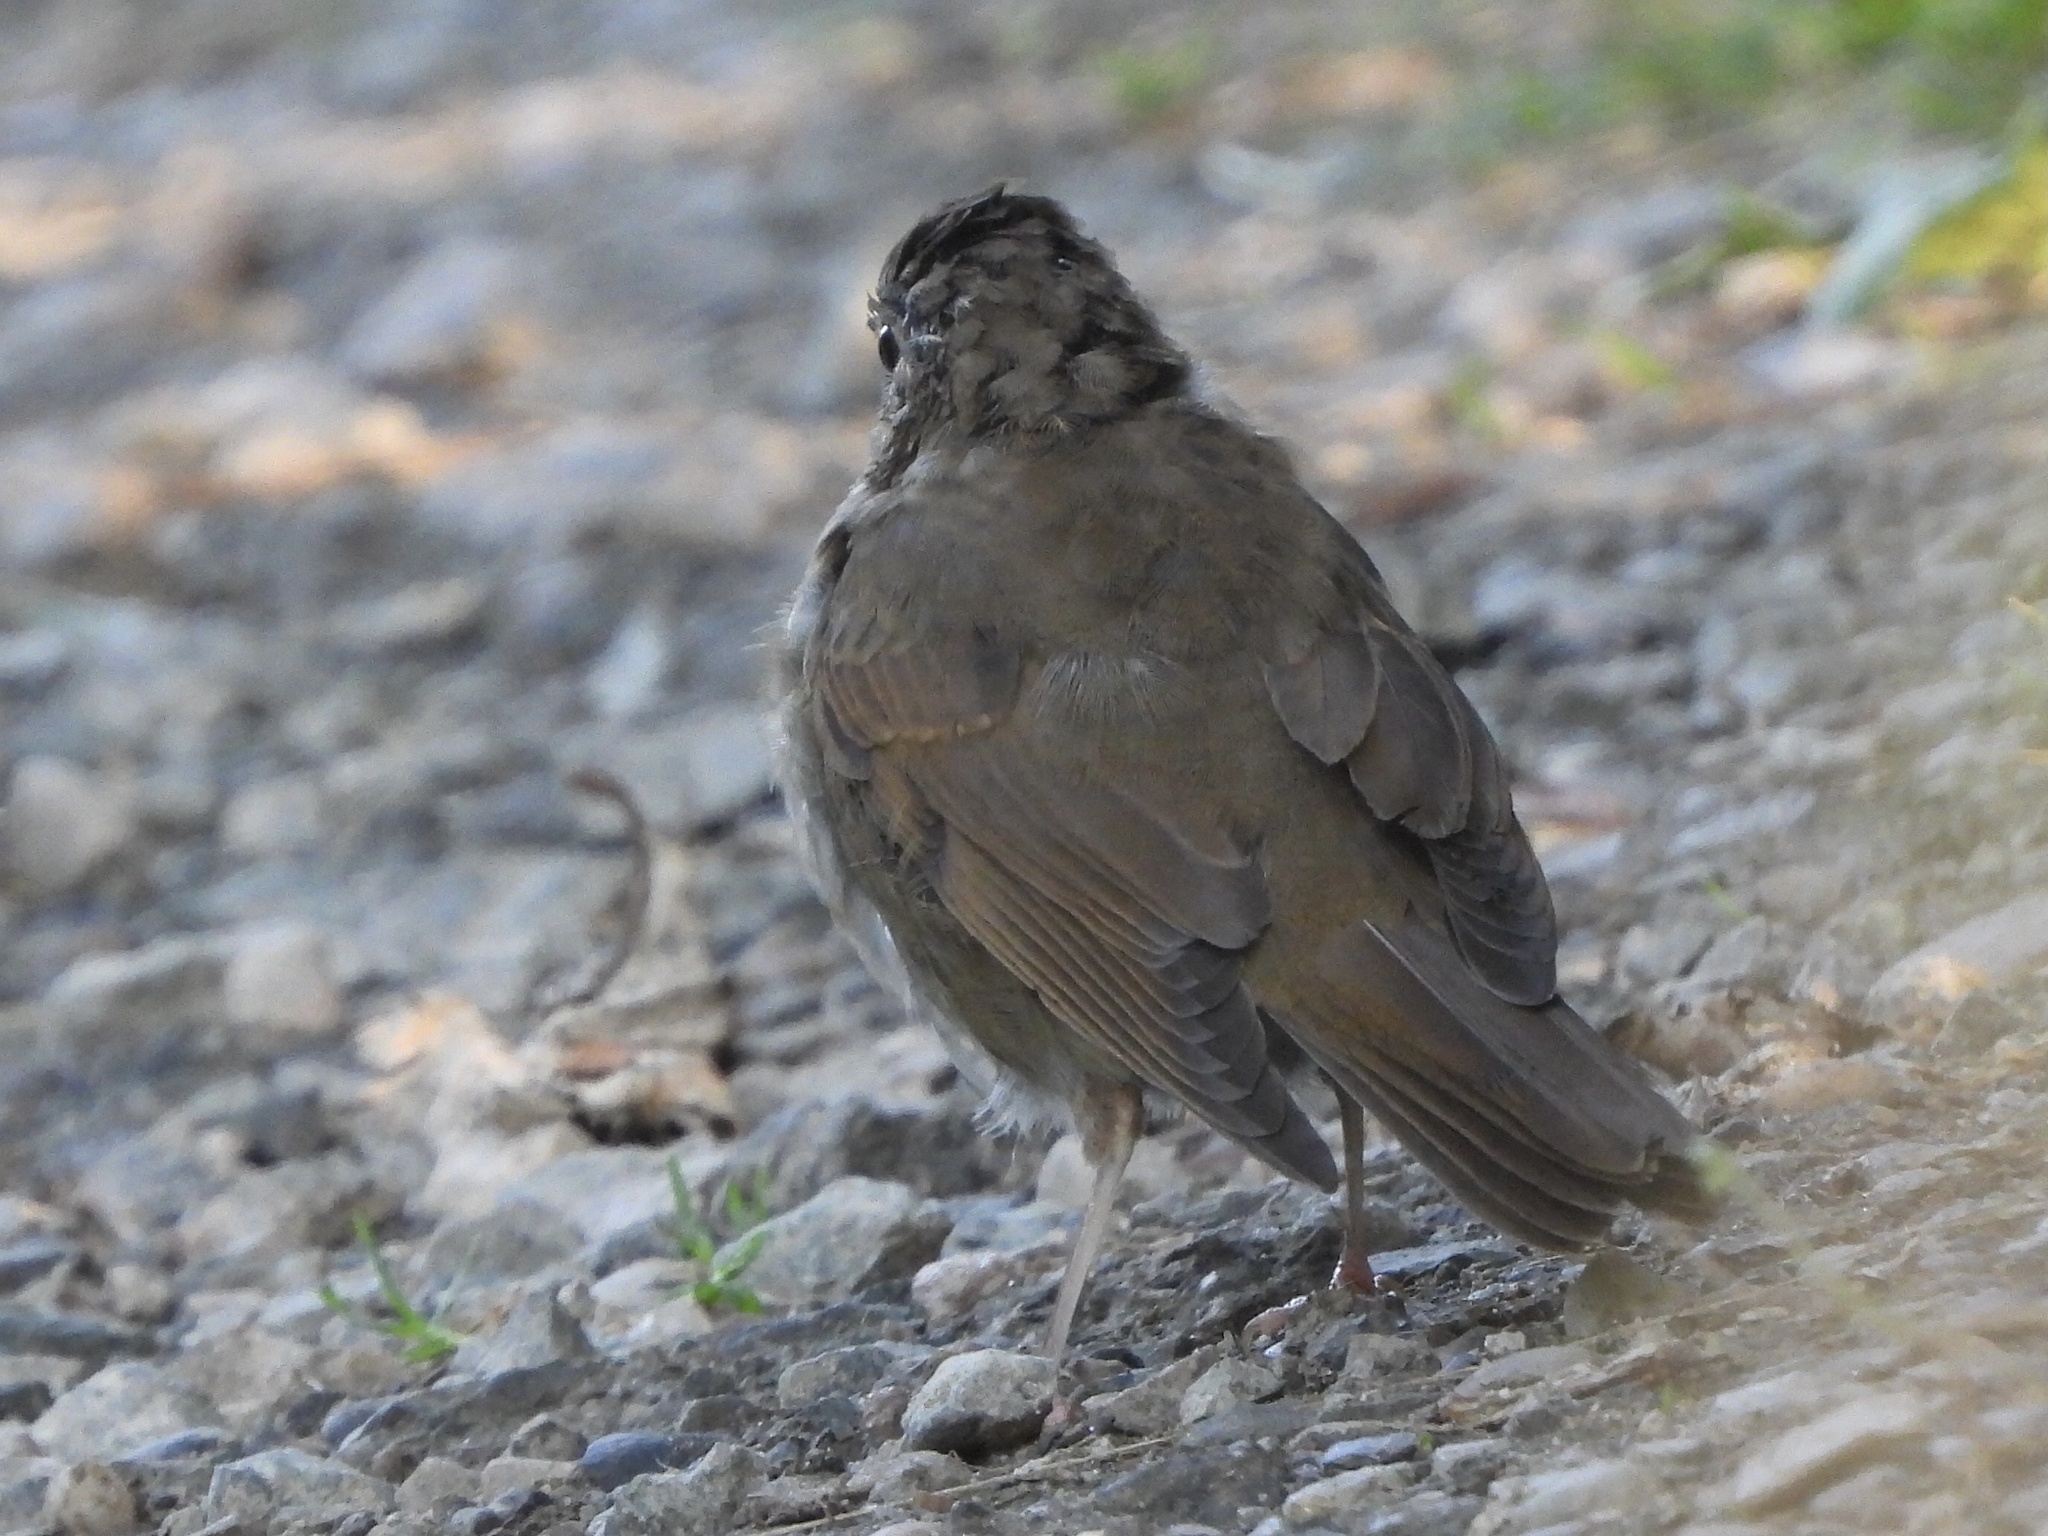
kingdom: Animalia
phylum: Chordata
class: Aves
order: Passeriformes
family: Turdidae
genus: Catharus
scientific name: Catharus ustulatus
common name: Swainson's thrush
